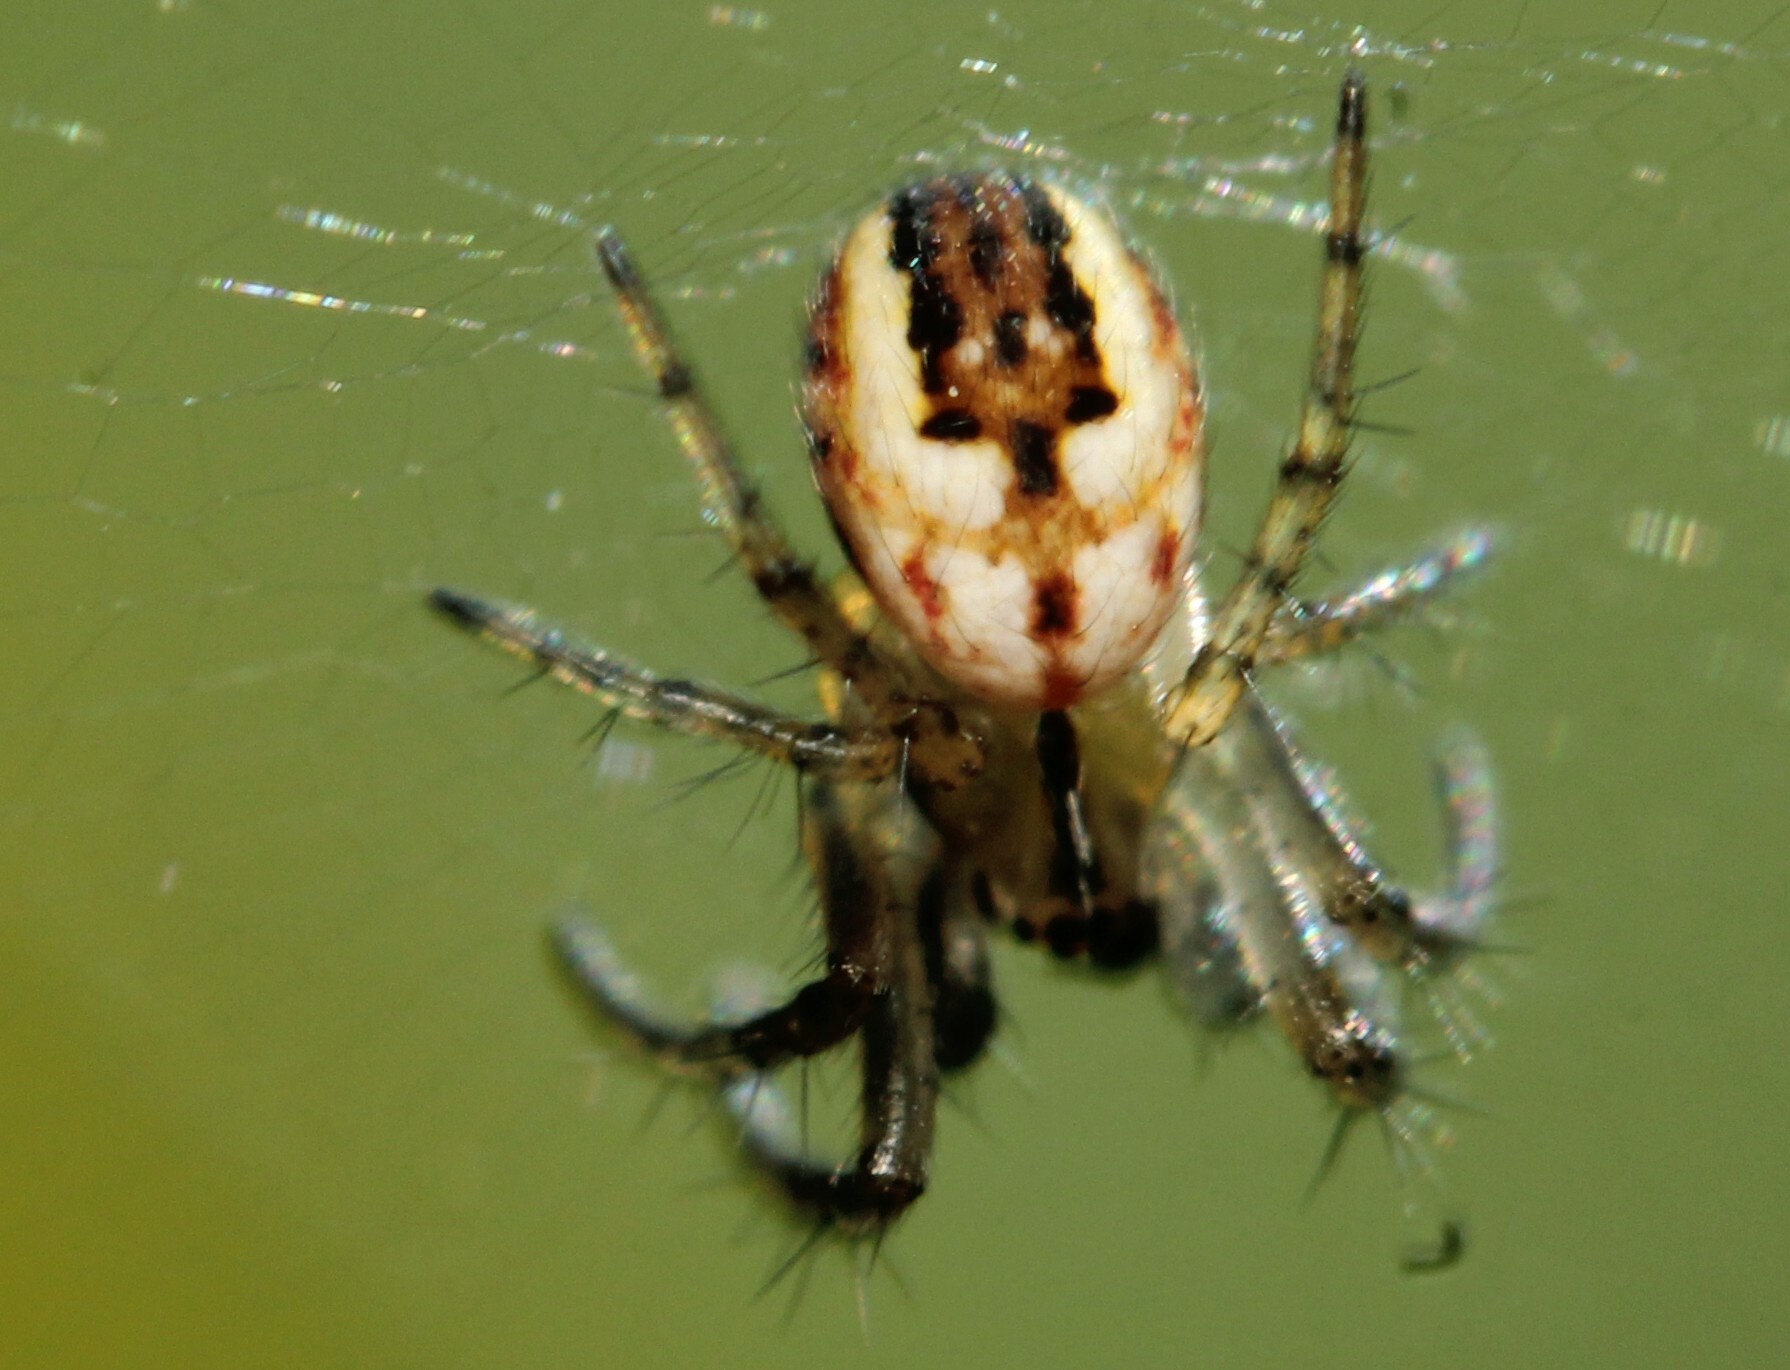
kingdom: Animalia
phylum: Arthropoda
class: Arachnida
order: Araneae
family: Araneidae
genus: Mangora
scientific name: Mangora acalypha
